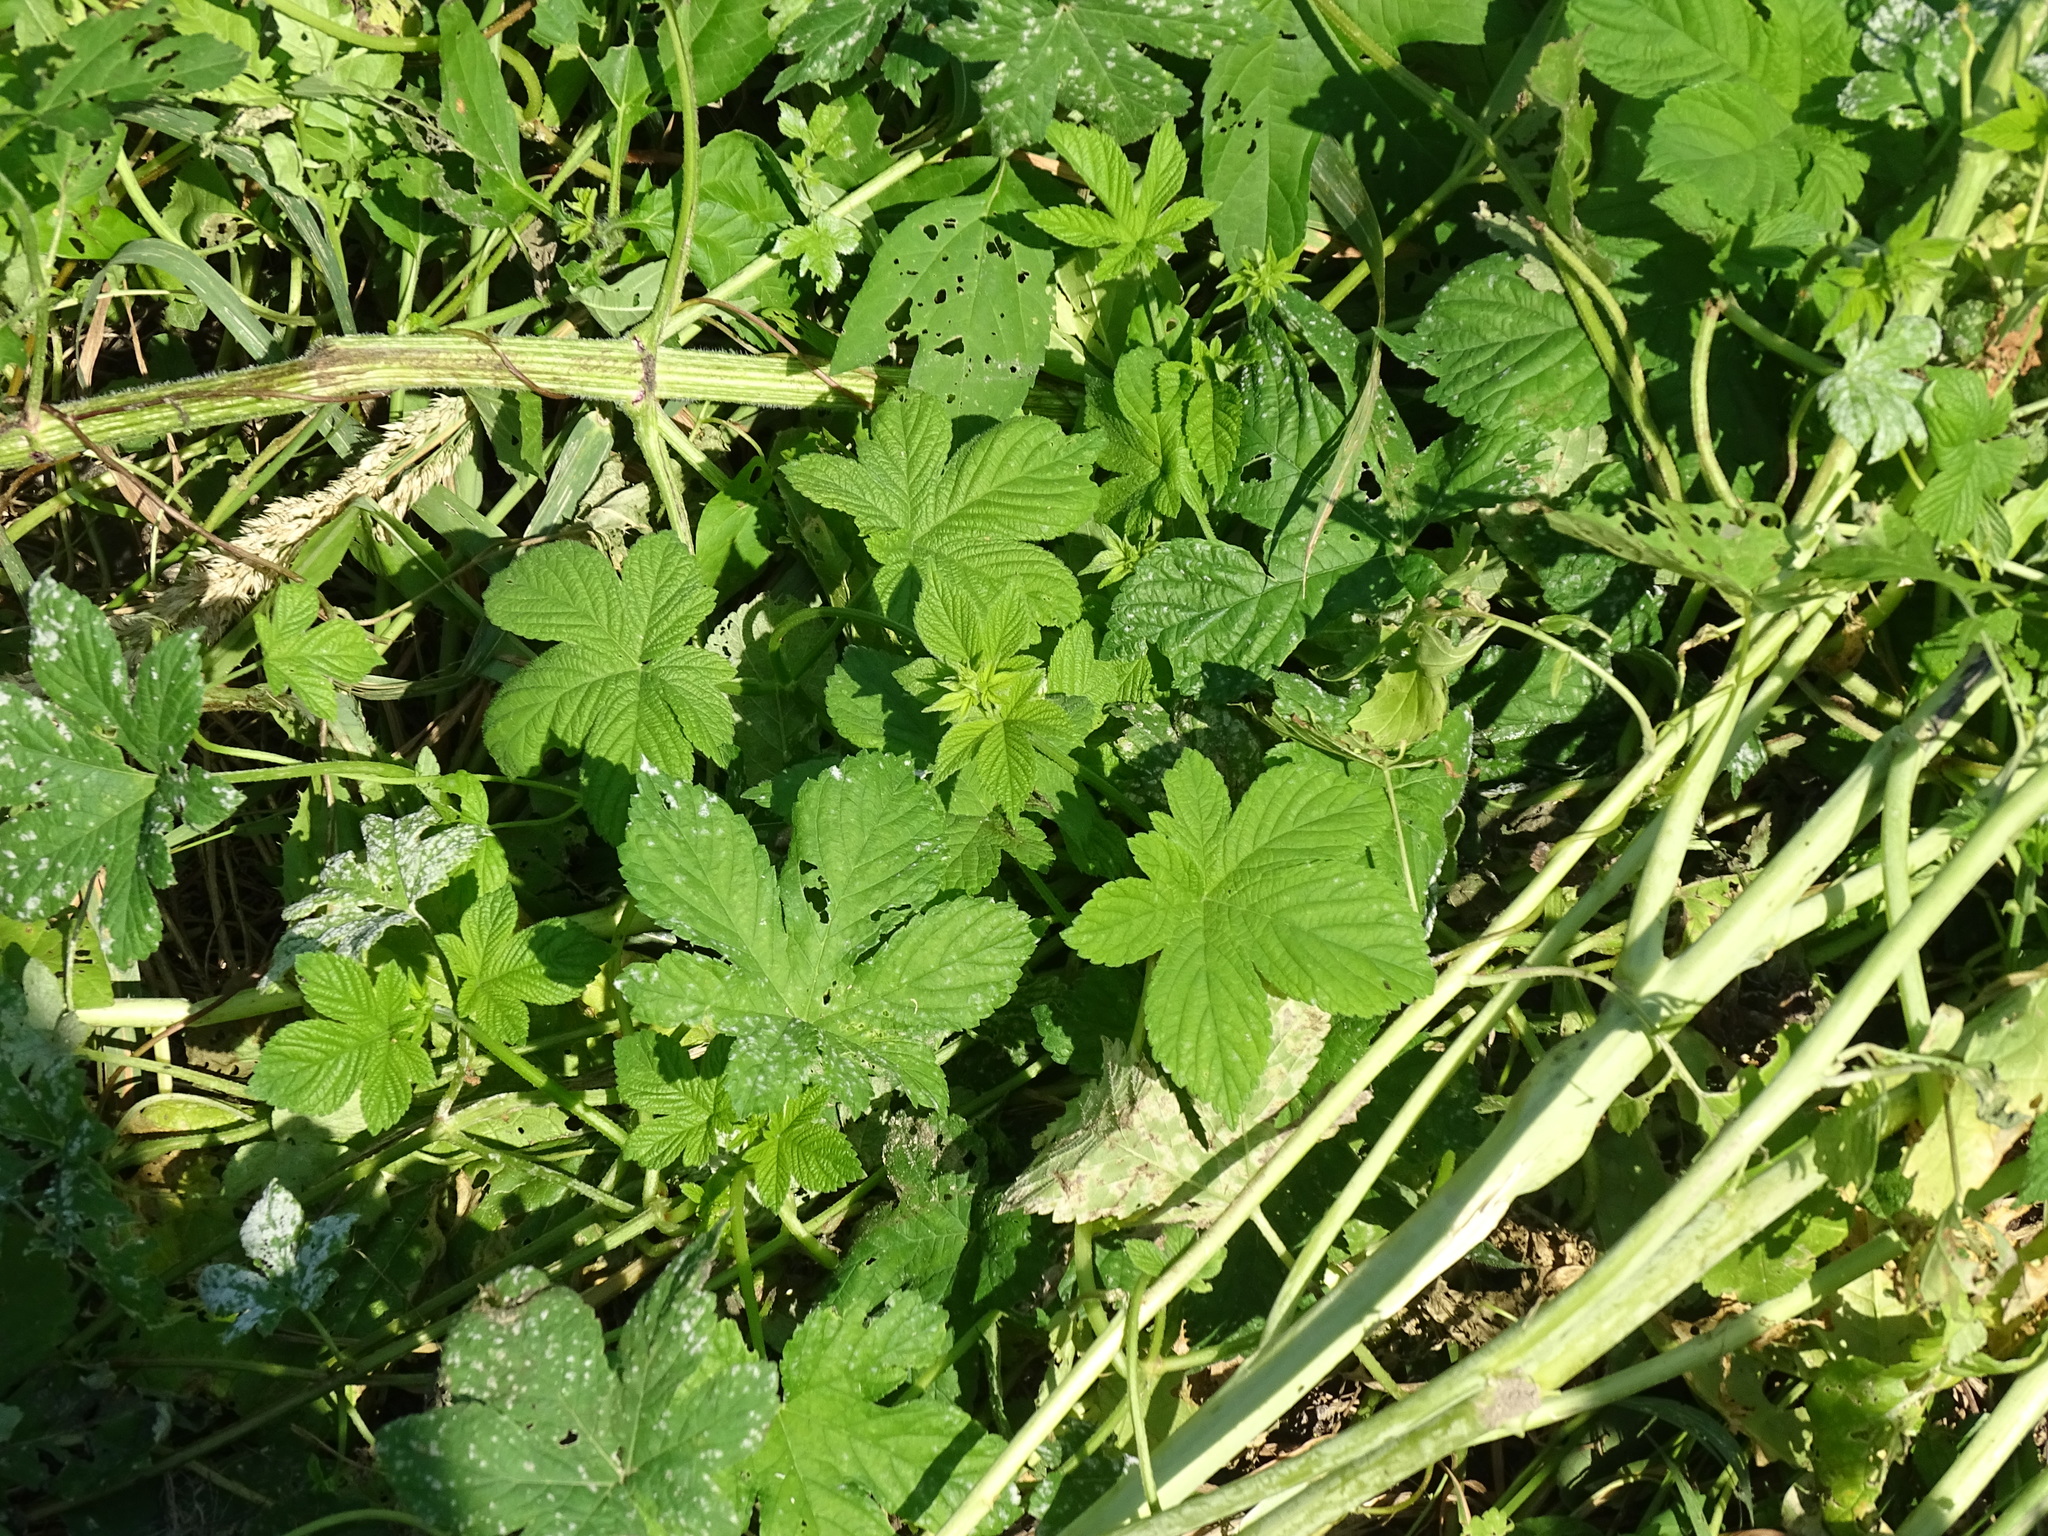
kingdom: Plantae
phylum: Tracheophyta
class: Magnoliopsida
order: Rosales
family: Cannabaceae
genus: Humulus
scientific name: Humulus scandens
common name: Japanese hop
